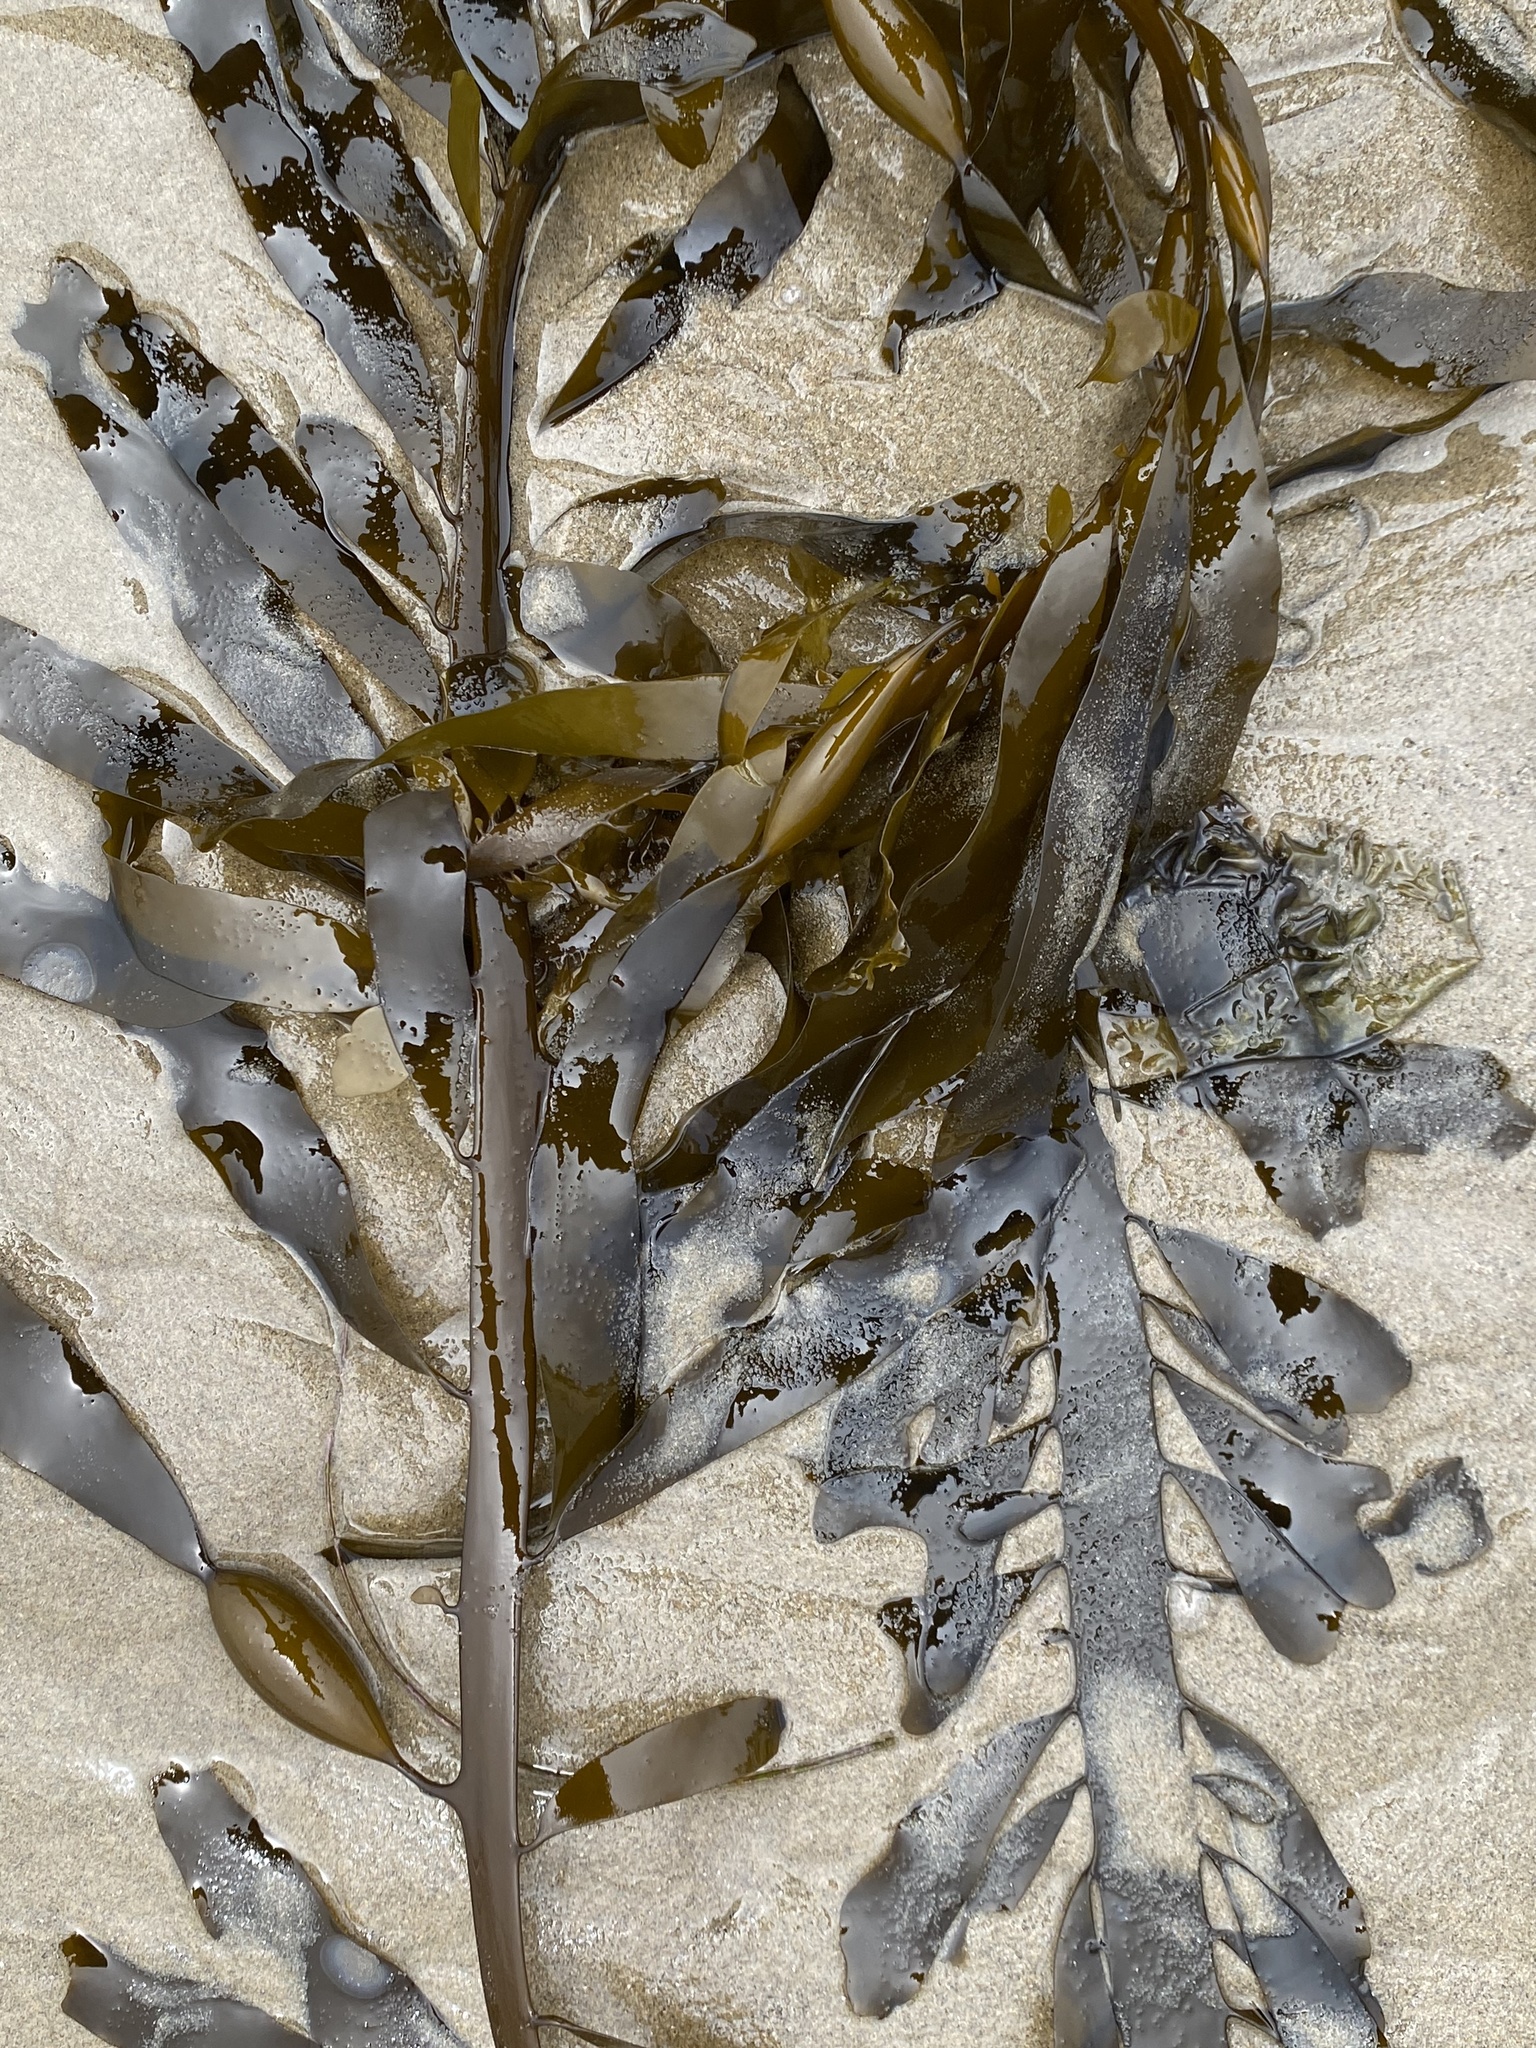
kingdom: Chromista
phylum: Ochrophyta
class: Phaeophyceae
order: Laminariales
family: Lessoniaceae
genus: Egregia
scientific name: Egregia menziesii
